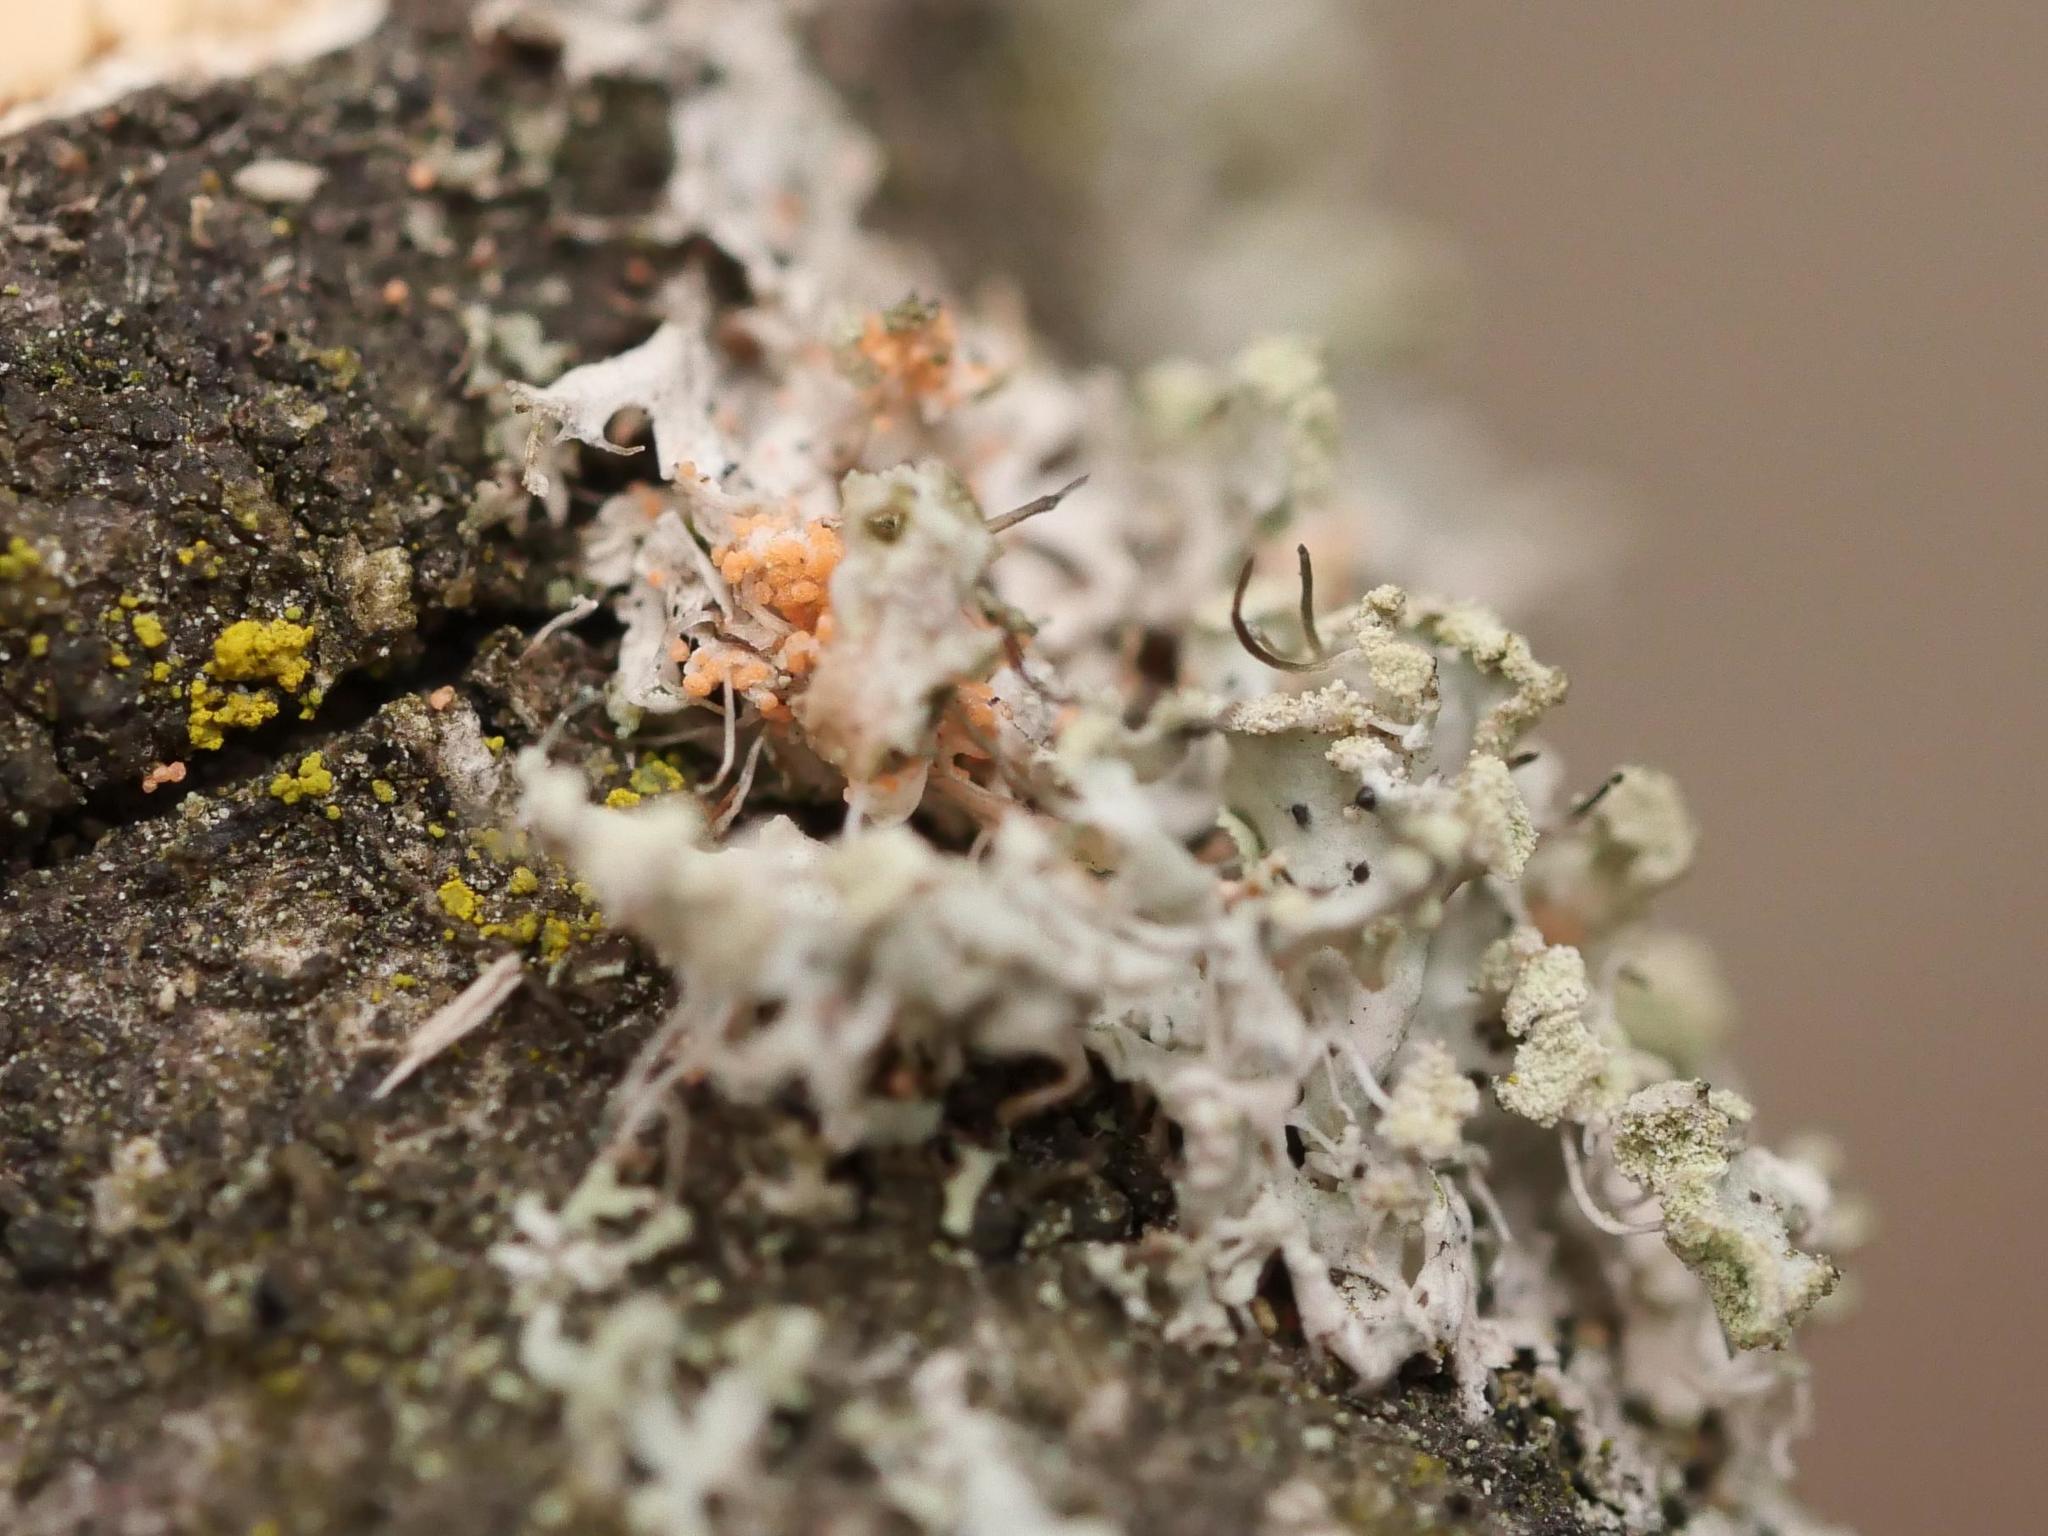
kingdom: Fungi
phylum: Basidiomycota
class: Agaricomycetes
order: Corticiales
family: Corticiaceae
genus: Erythricium
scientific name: Erythricium aurantiacum
